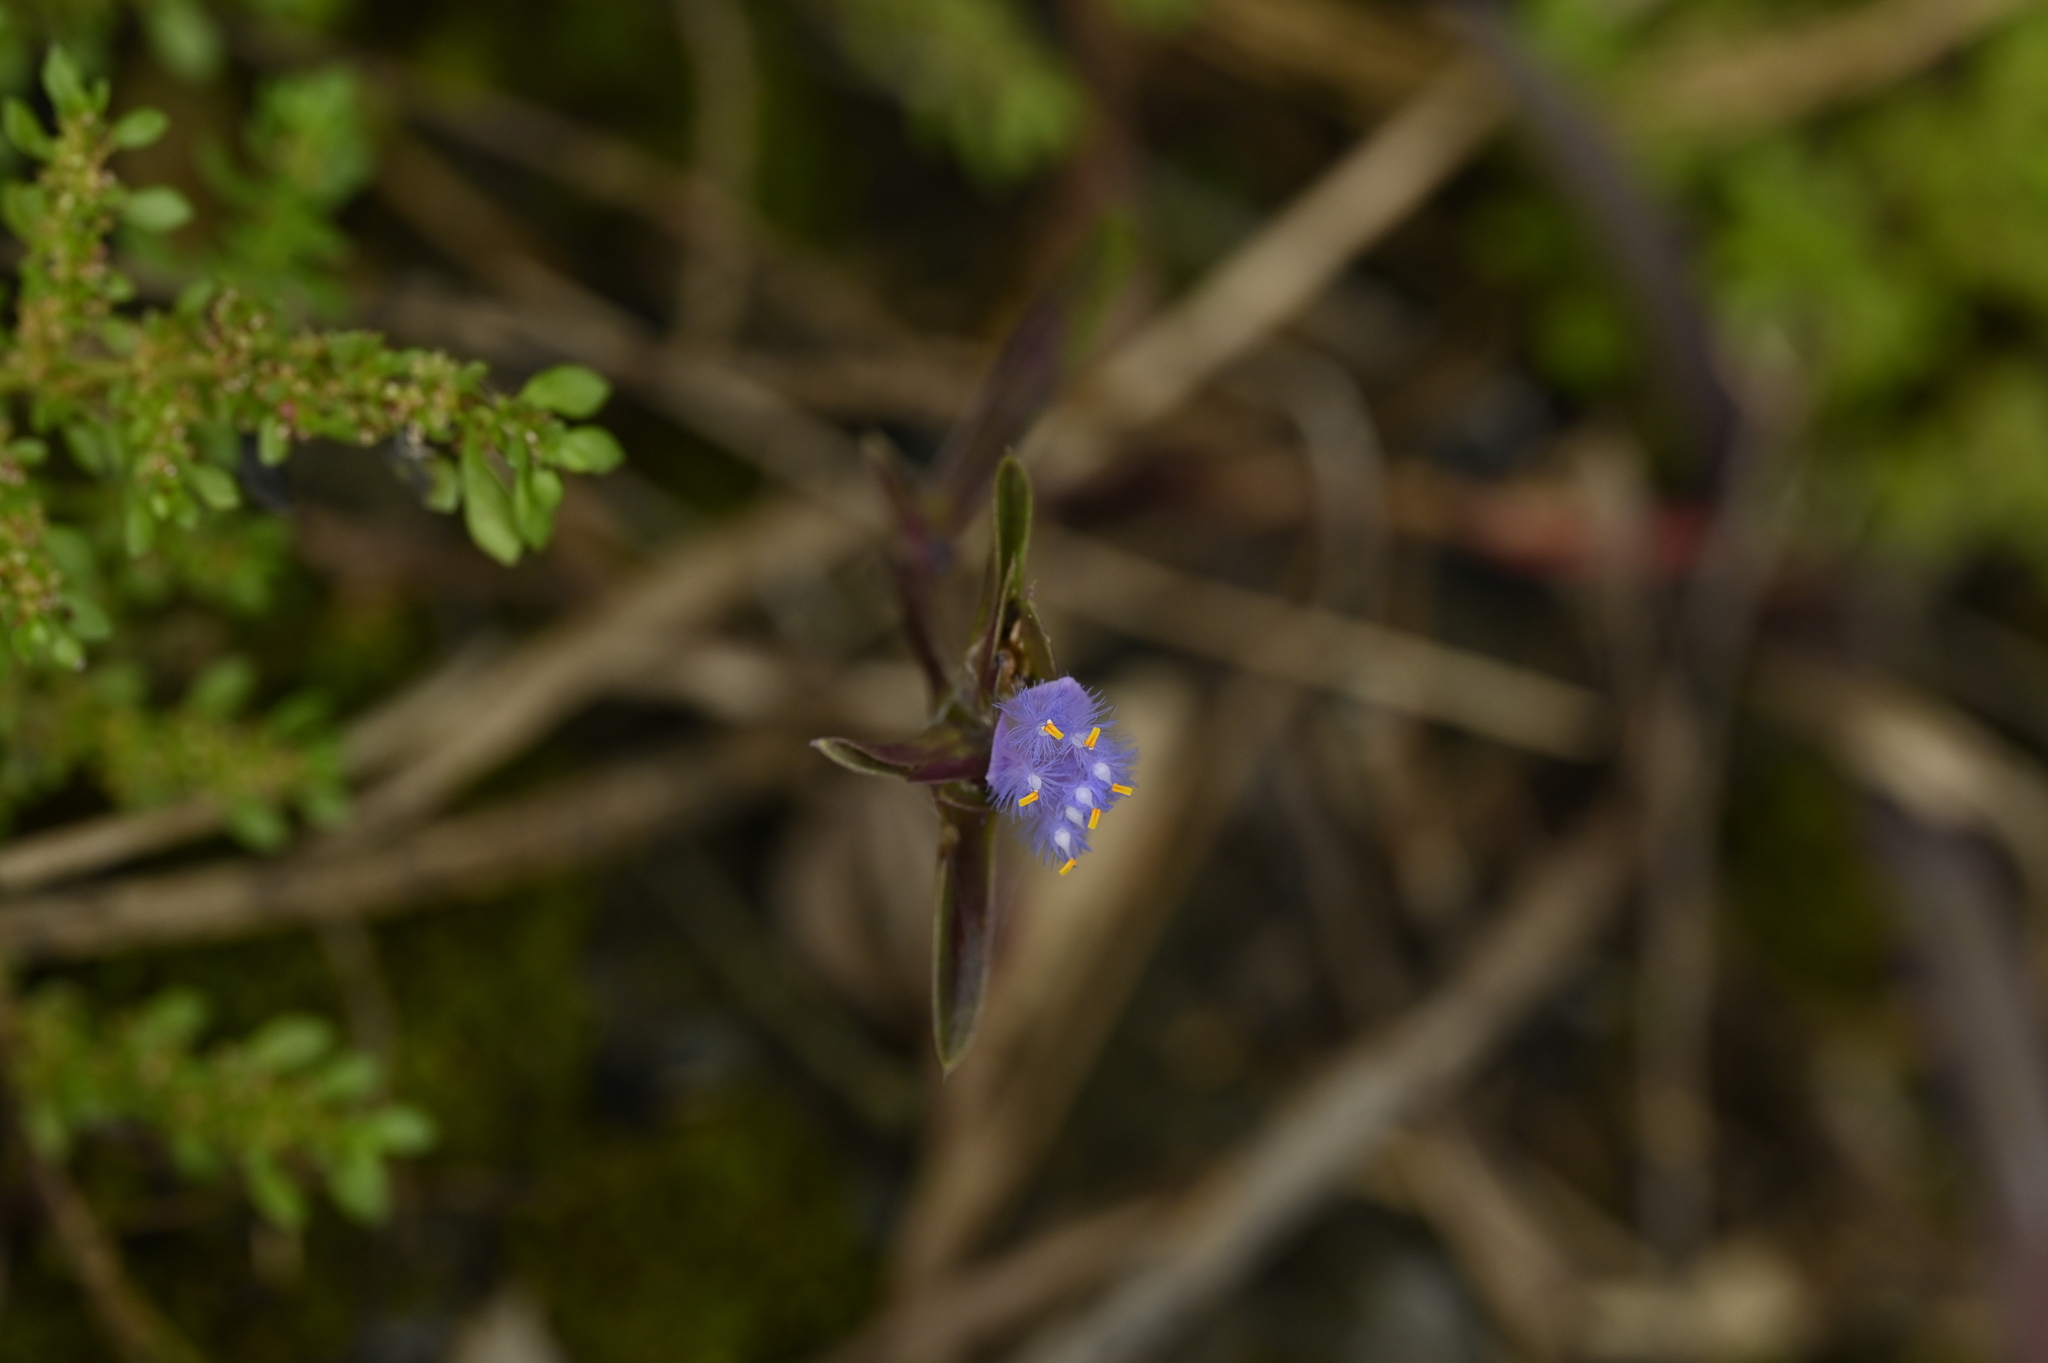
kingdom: Plantae
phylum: Tracheophyta
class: Liliopsida
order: Commelinales
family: Commelinaceae
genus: Cyanotis
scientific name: Cyanotis arachnoidea
